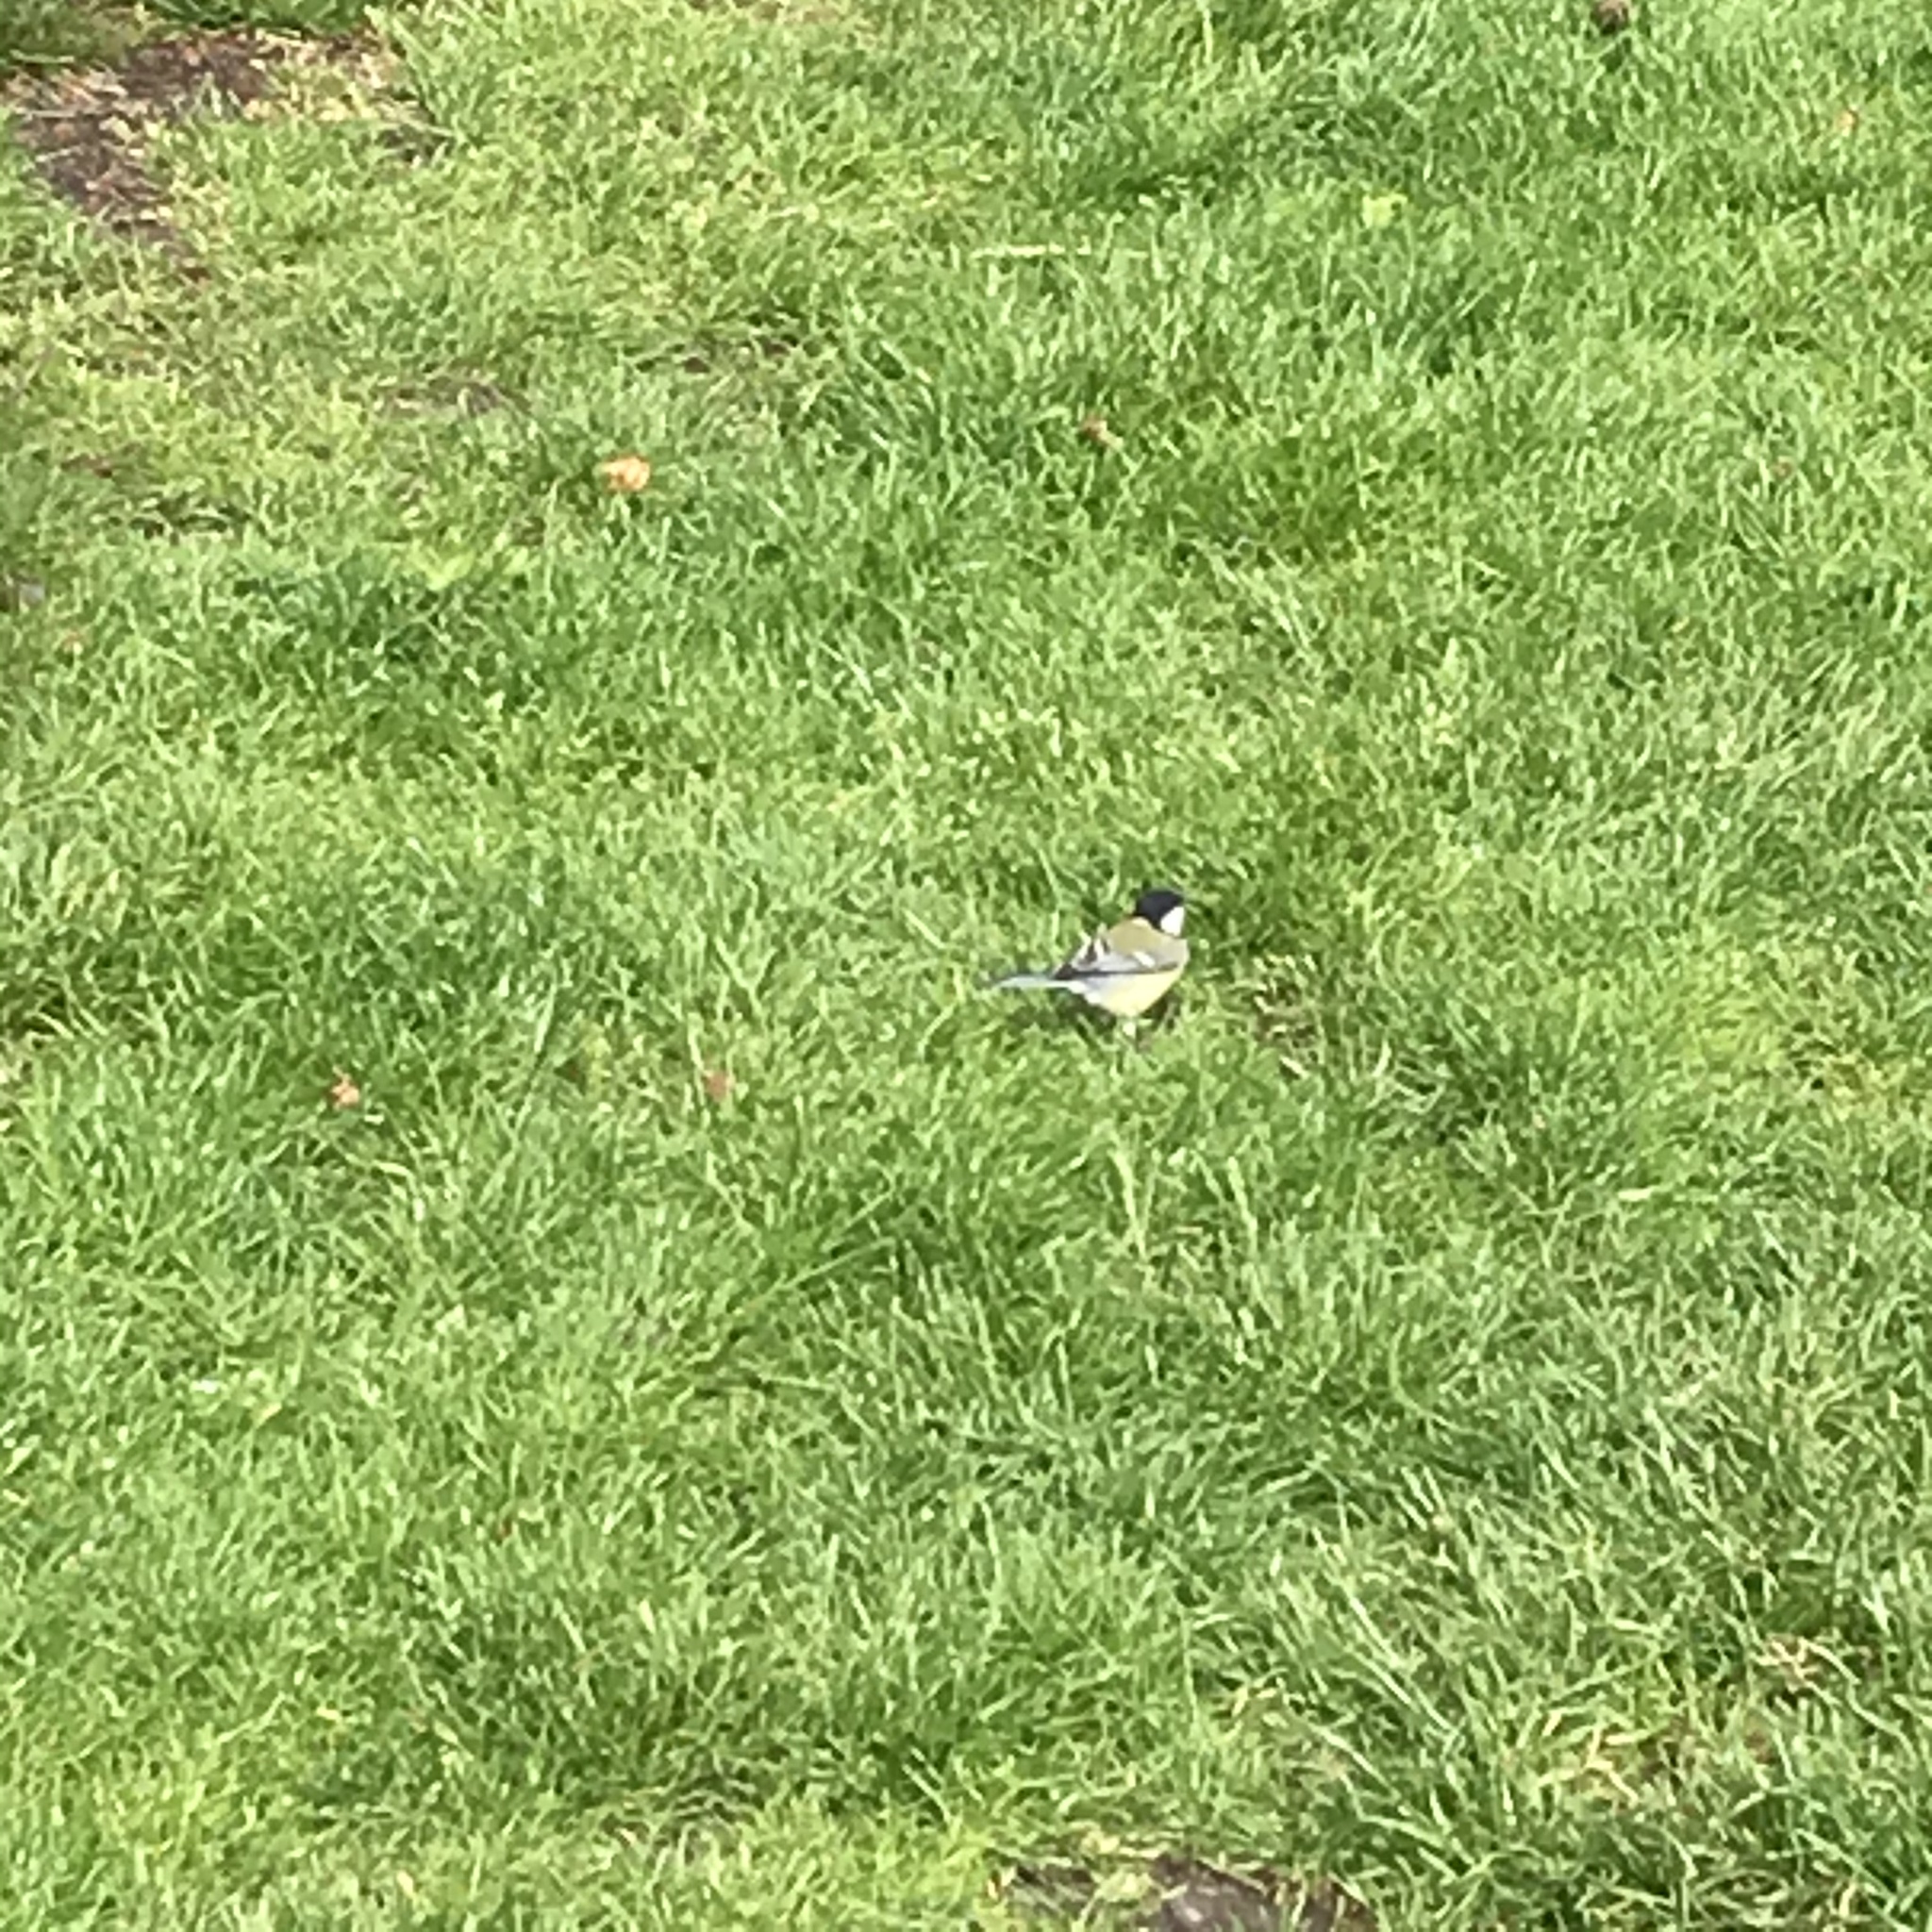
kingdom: Animalia
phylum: Chordata
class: Aves
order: Passeriformes
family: Paridae
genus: Parus
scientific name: Parus major
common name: Great tit
